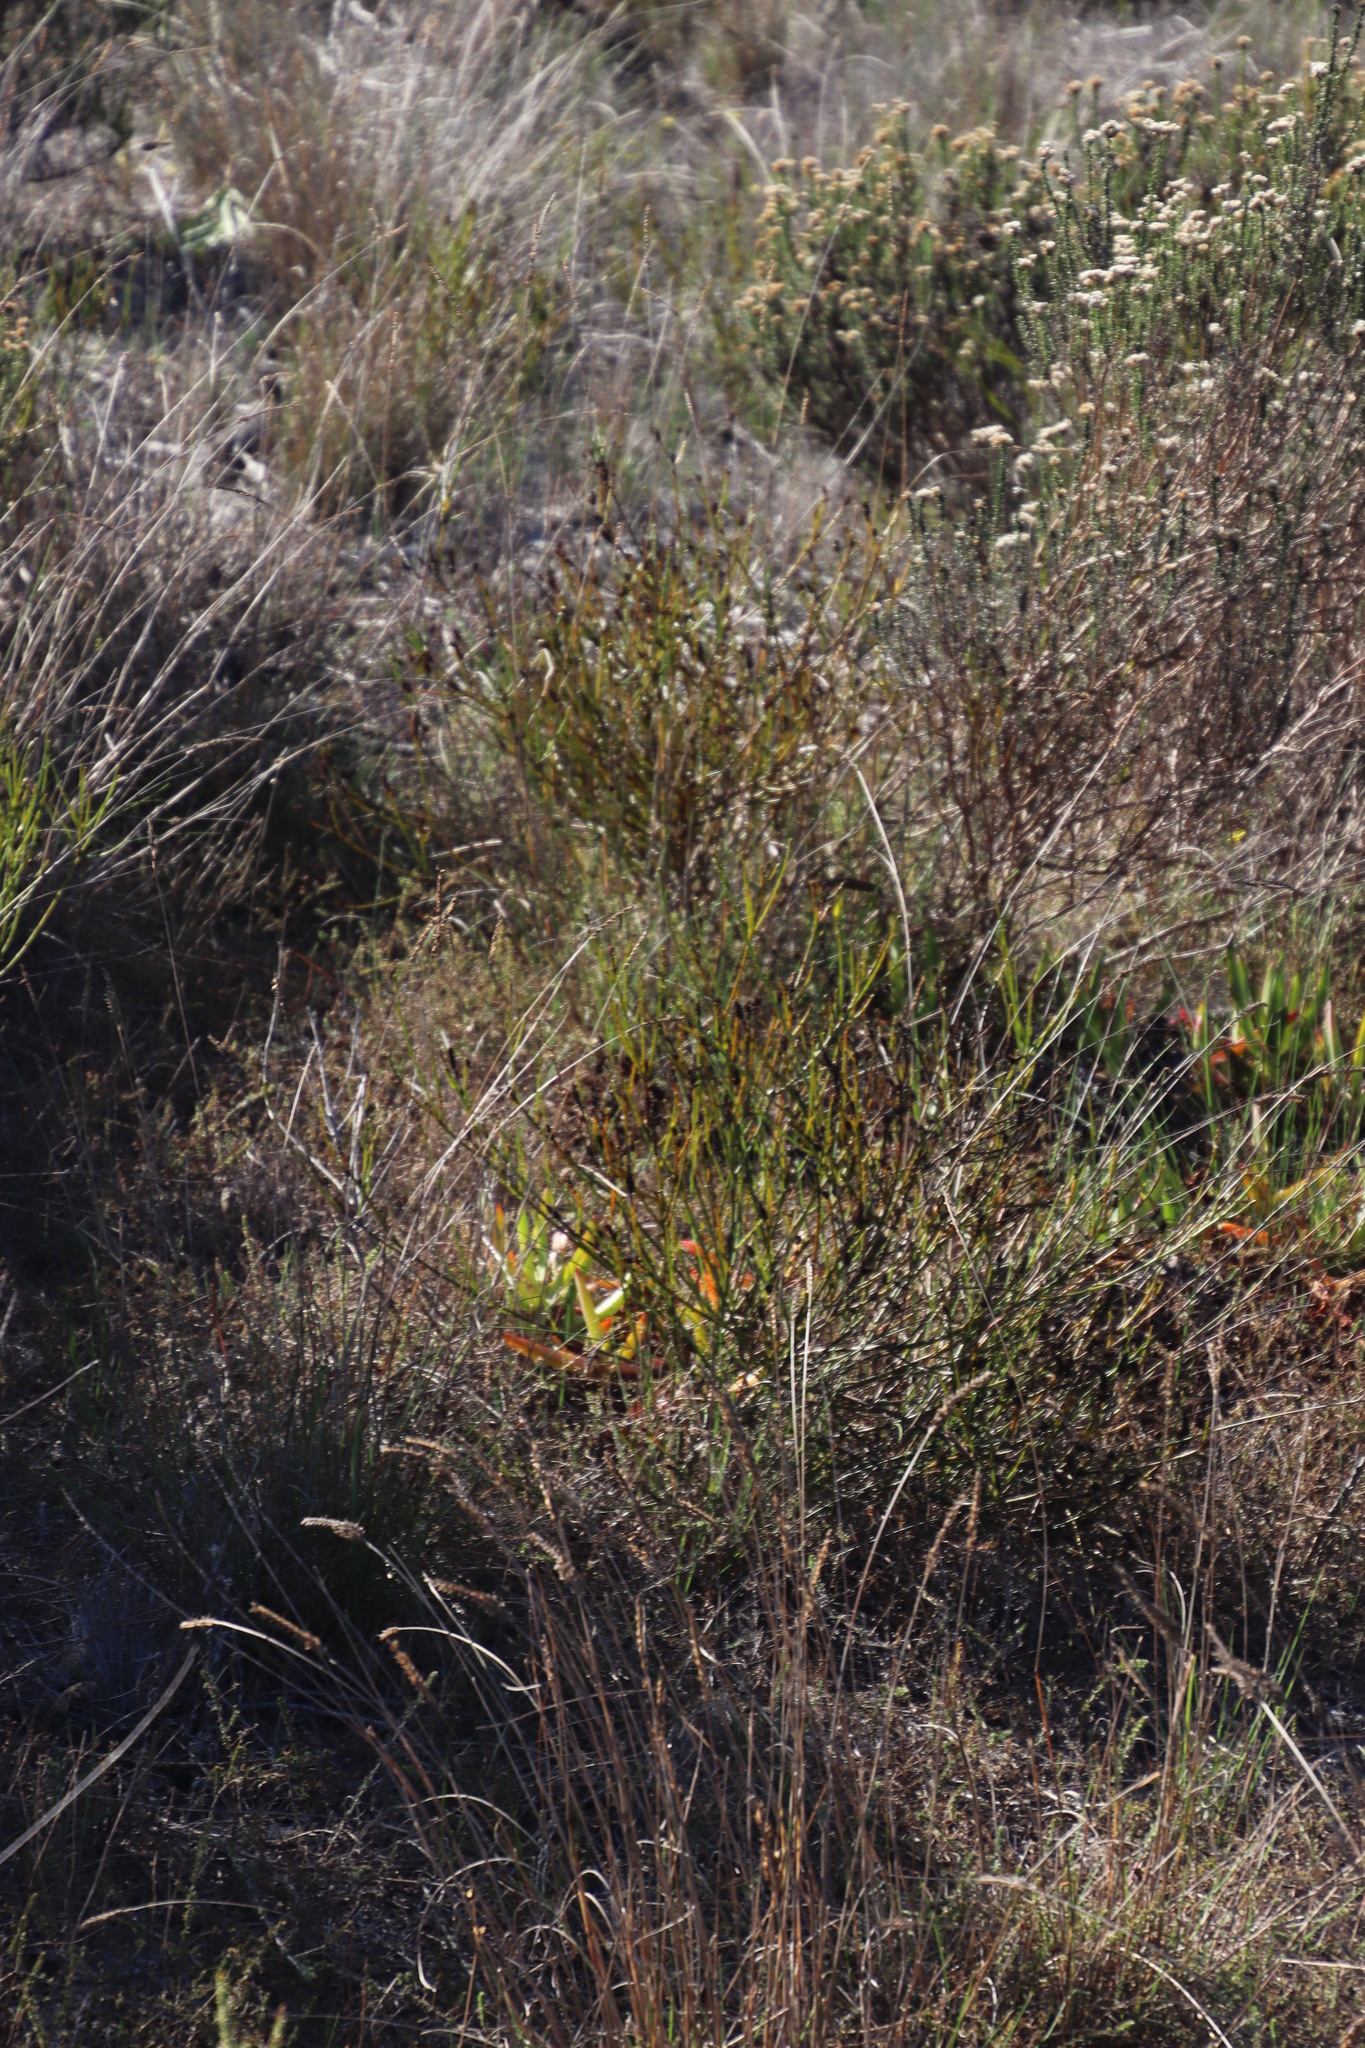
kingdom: Plantae
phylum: Tracheophyta
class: Magnoliopsida
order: Santalales
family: Thesiaceae
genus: Thesium
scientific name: Thesium aggregatum
